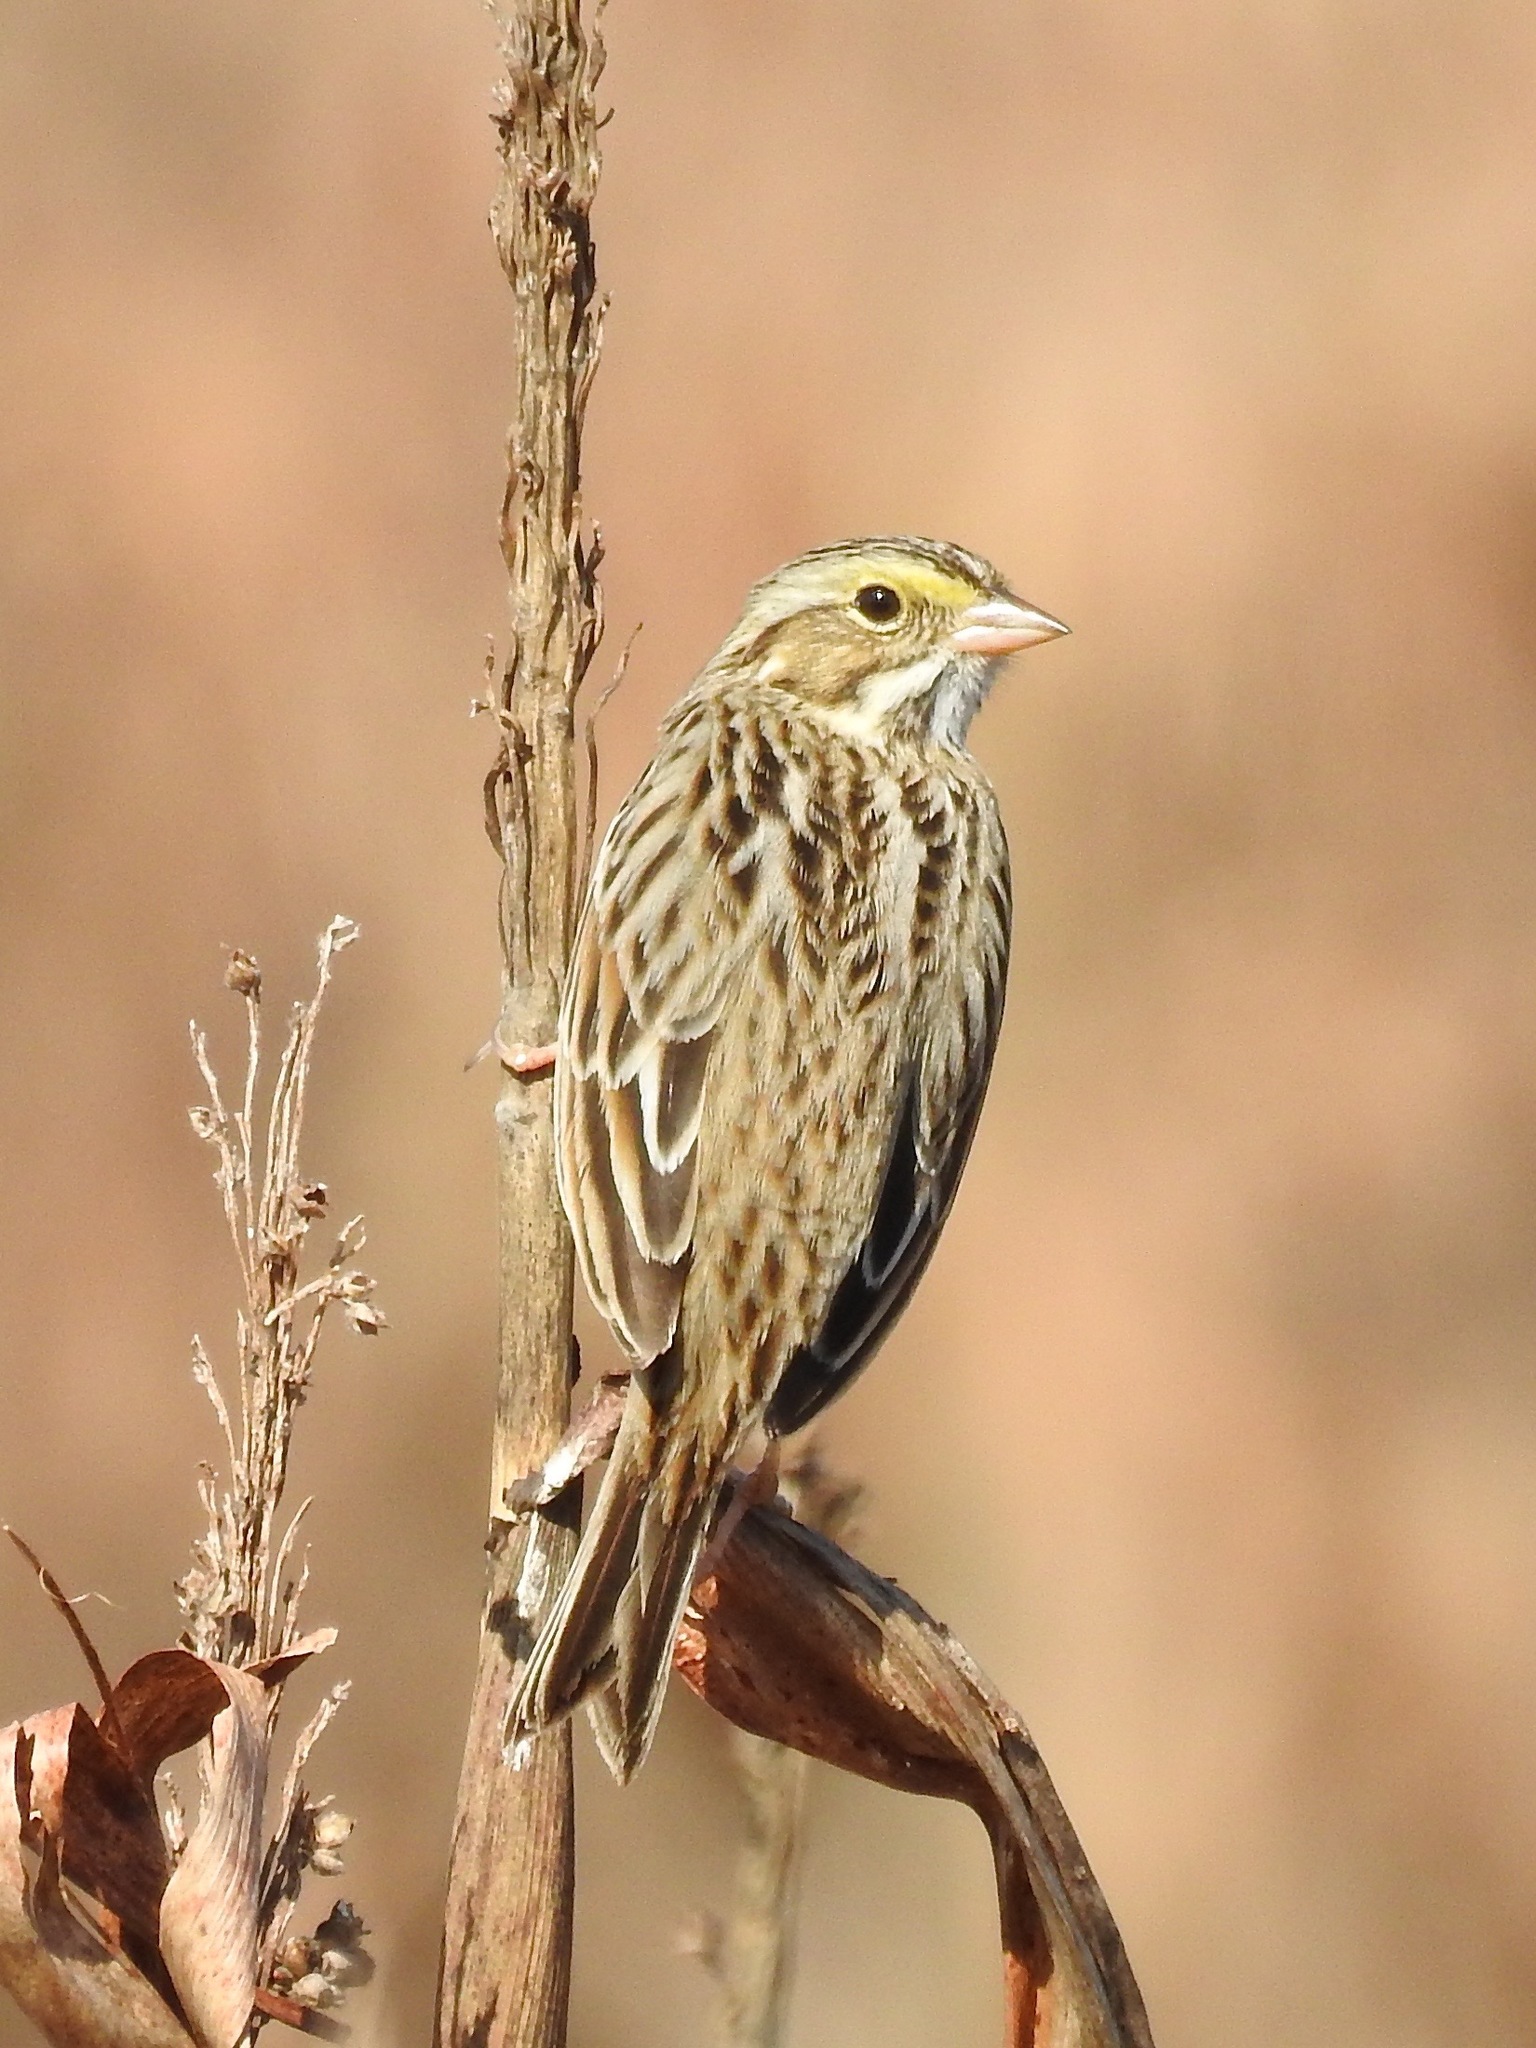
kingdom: Animalia
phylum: Chordata
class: Aves
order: Passeriformes
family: Passerellidae
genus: Passerculus
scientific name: Passerculus sandwichensis
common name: Savannah sparrow
